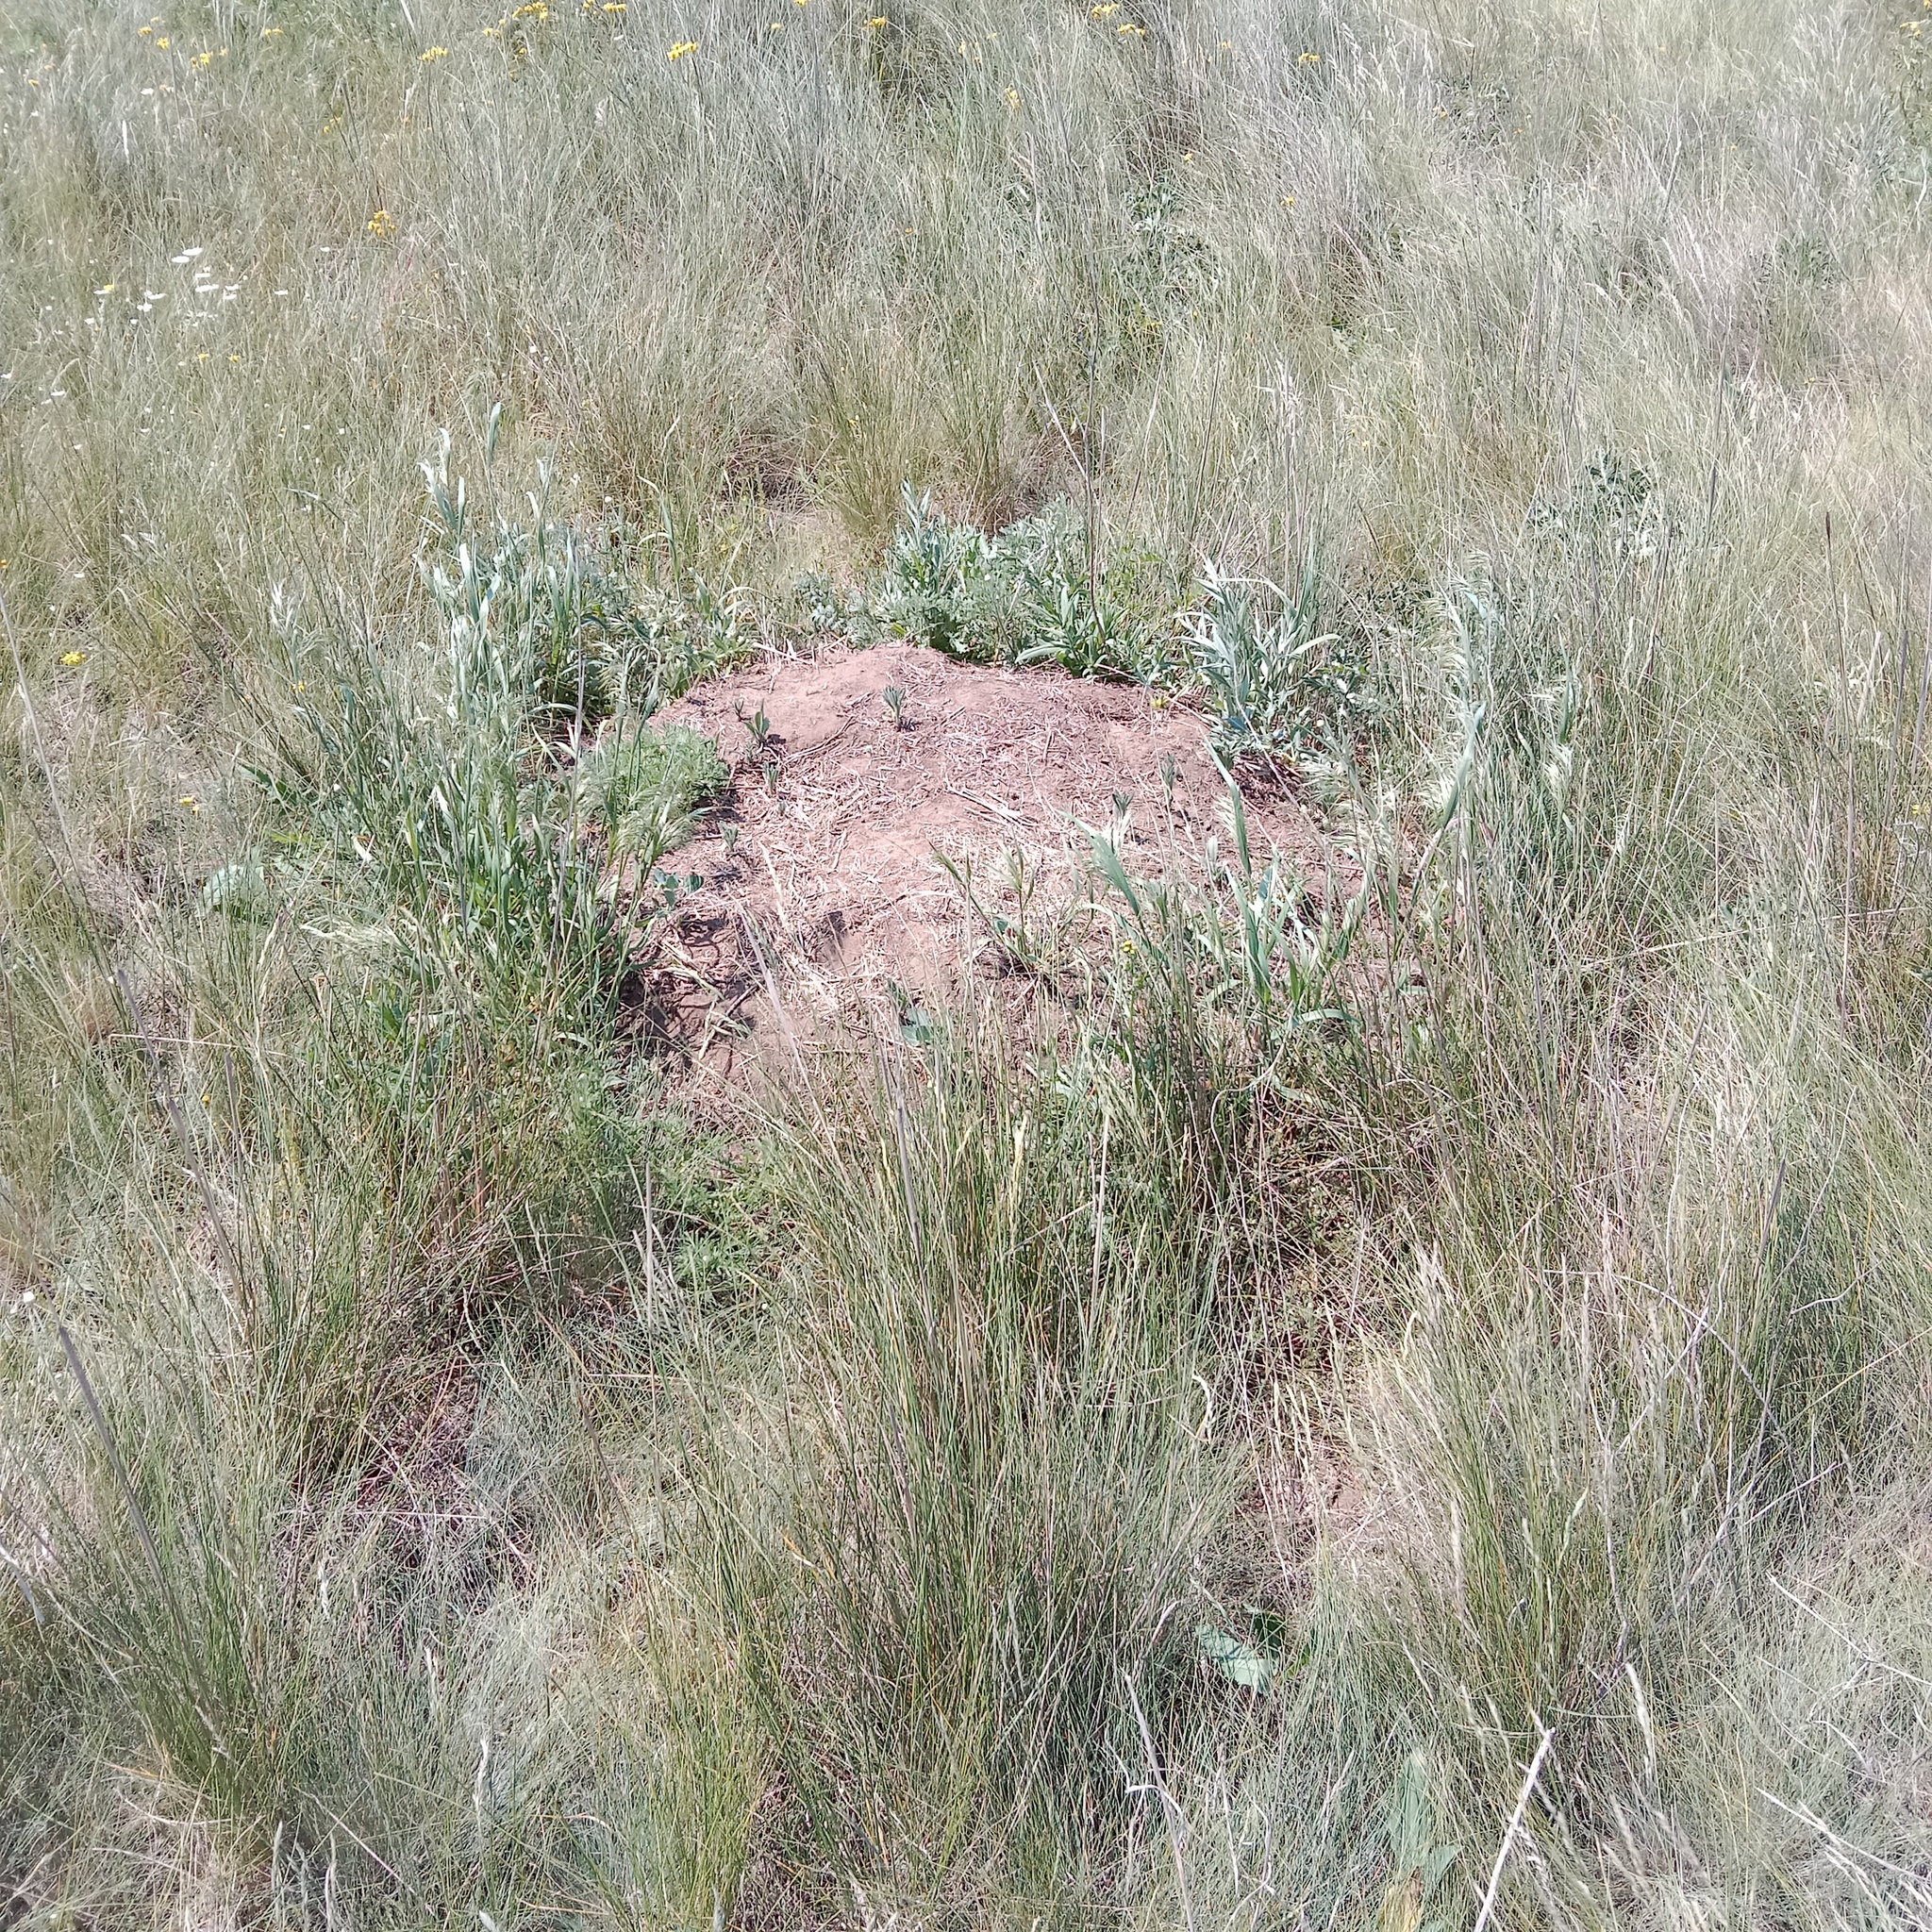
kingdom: Animalia
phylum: Chordata
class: Mammalia
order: Rodentia
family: Muridae
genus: Mus
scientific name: Mus spicilegus
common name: Mound-building mouse
